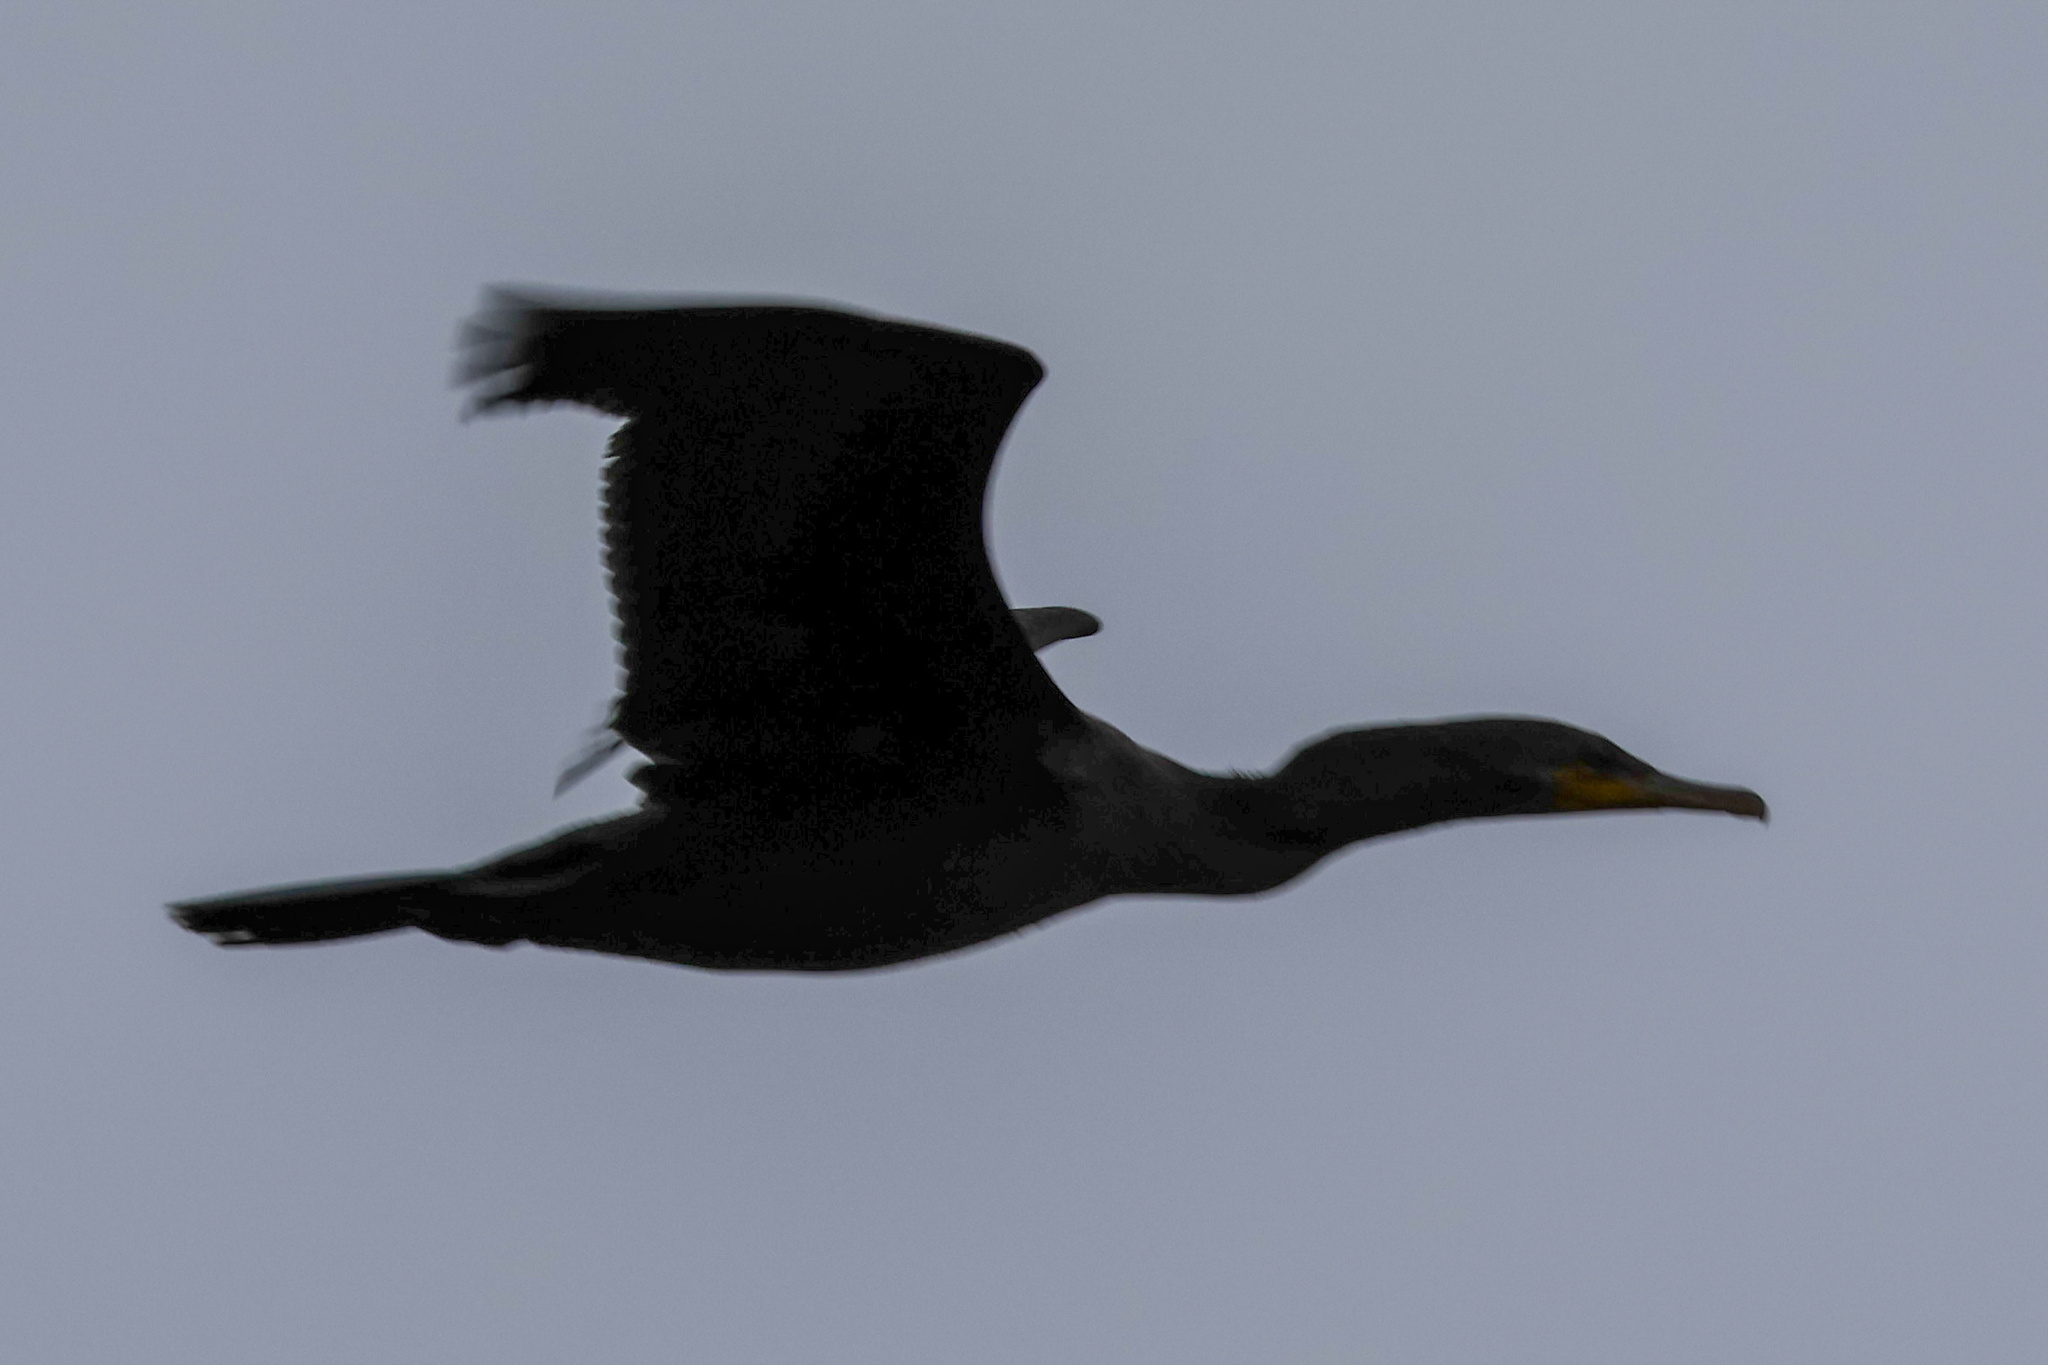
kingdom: Animalia
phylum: Chordata
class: Aves
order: Suliformes
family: Phalacrocoracidae
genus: Phalacrocorax
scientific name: Phalacrocorax auritus
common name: Double-crested cormorant
